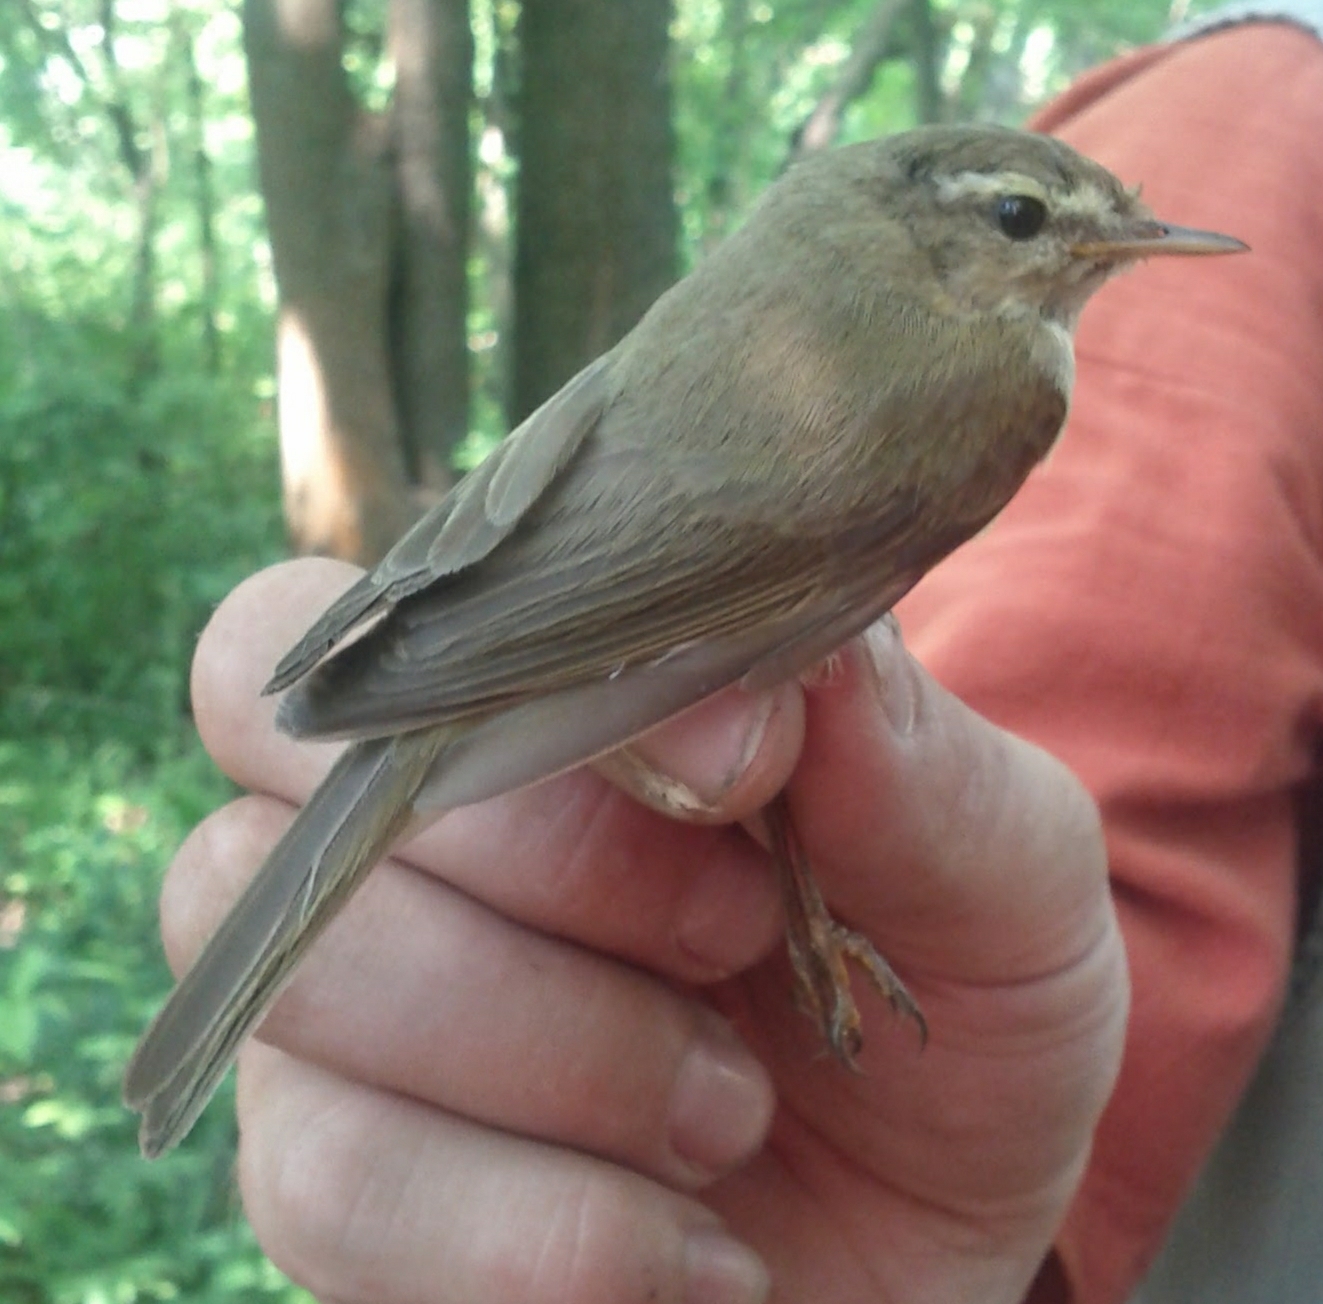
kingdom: Animalia
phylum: Chordata
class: Aves
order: Passeriformes
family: Phylloscopidae
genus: Phylloscopus
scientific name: Phylloscopus collybita
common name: Common chiffchaff
